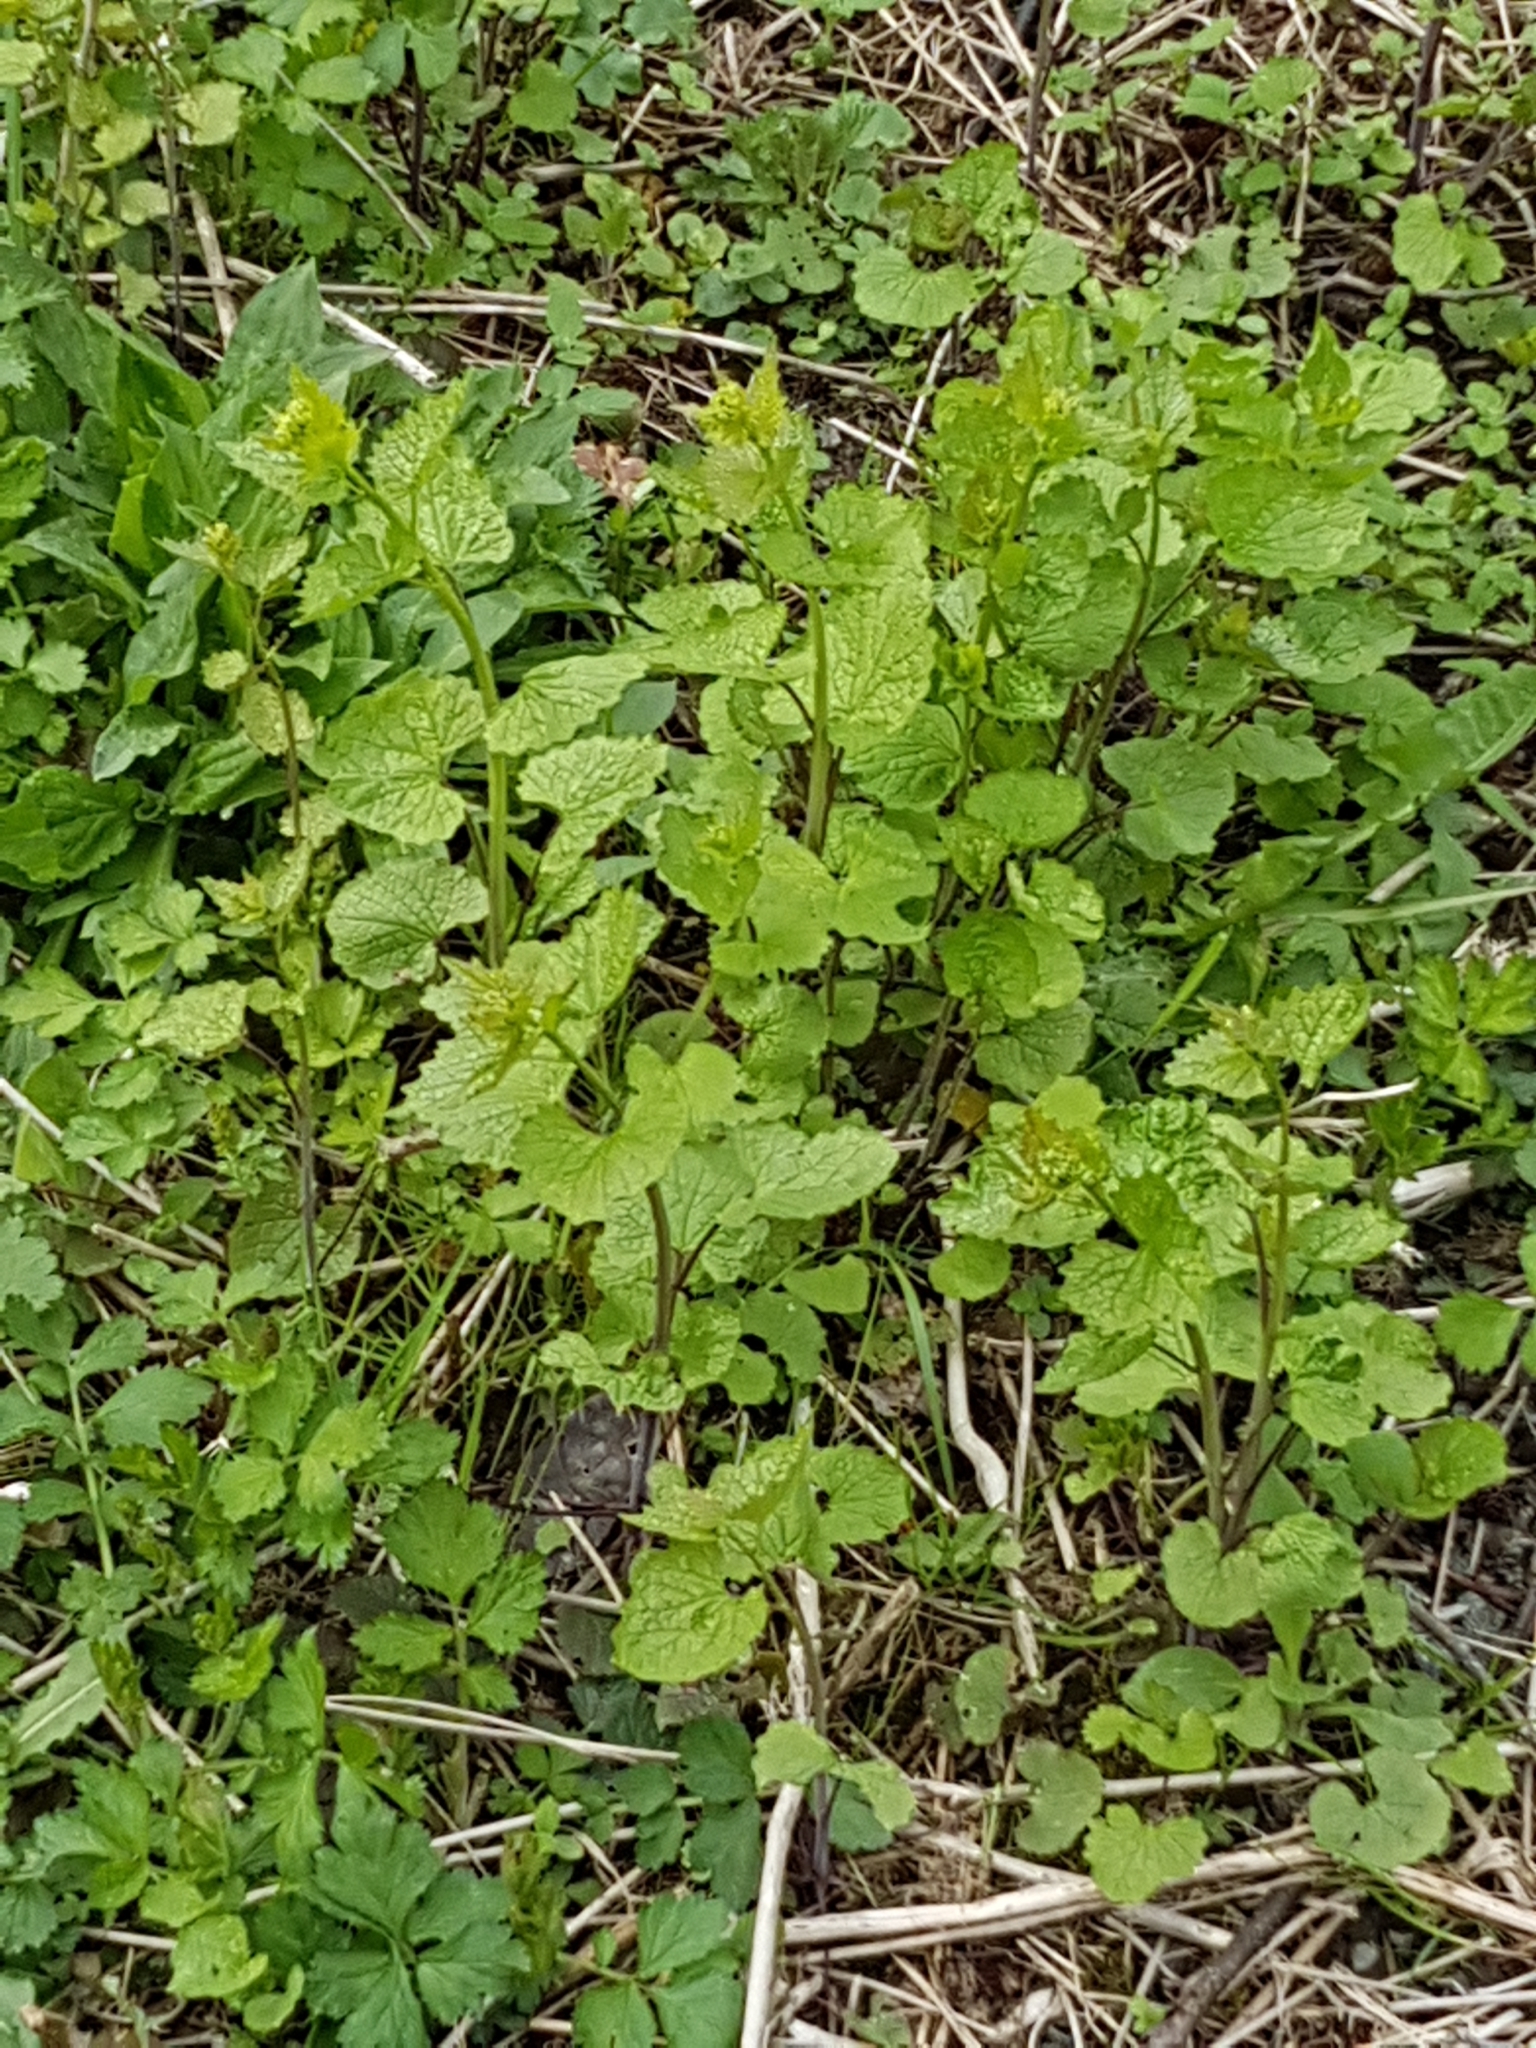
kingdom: Plantae
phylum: Tracheophyta
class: Magnoliopsida
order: Brassicales
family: Brassicaceae
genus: Alliaria
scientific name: Alliaria petiolata
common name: Garlic mustard
